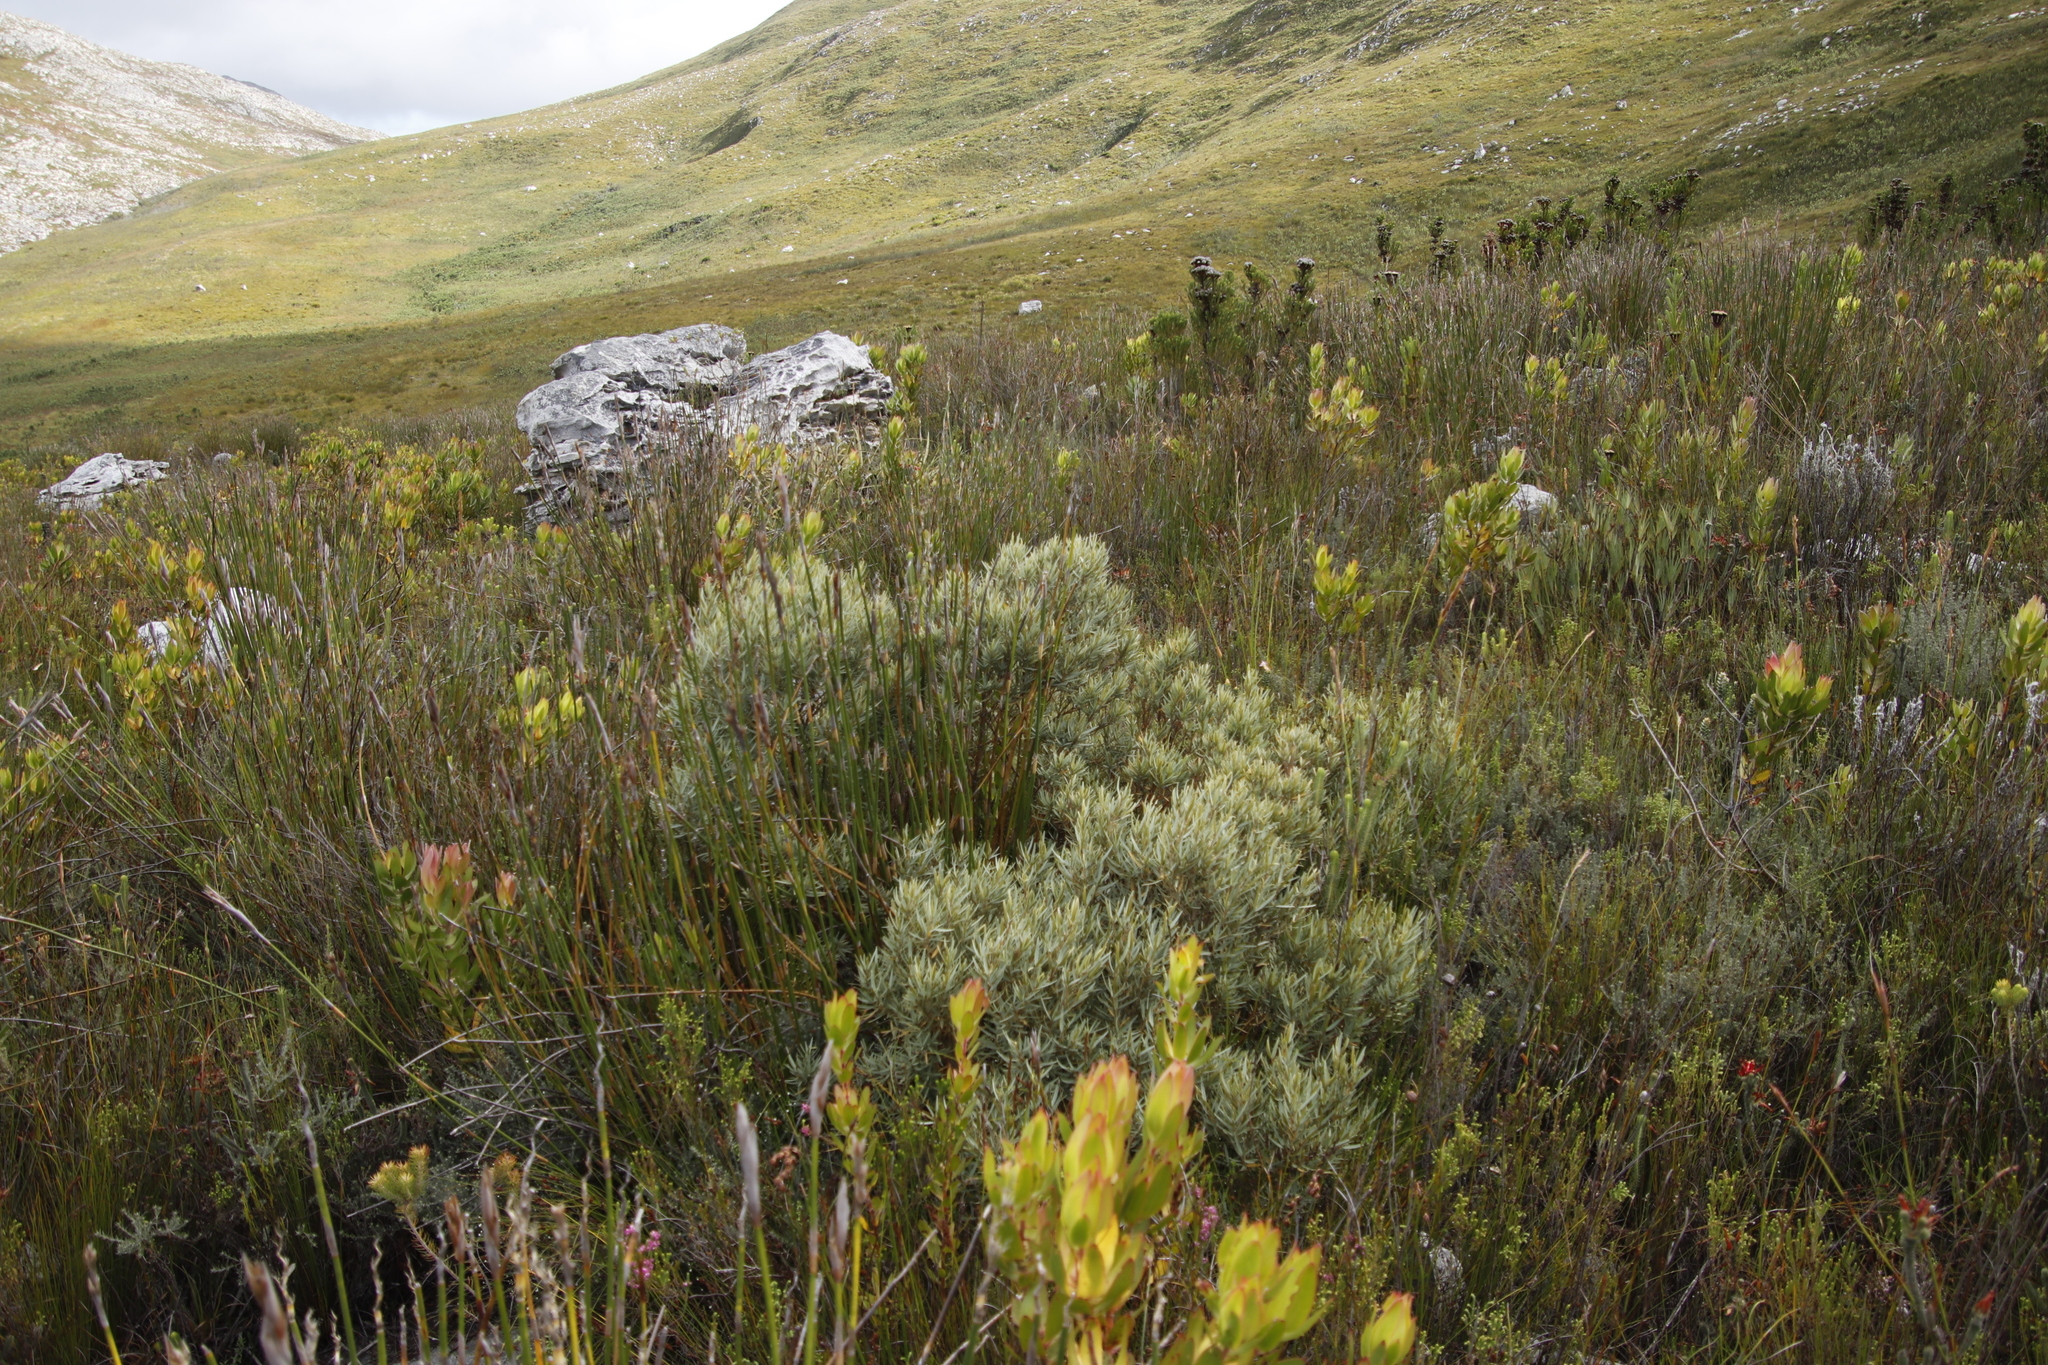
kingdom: Plantae
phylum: Tracheophyta
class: Magnoliopsida
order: Cornales
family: Grubbiaceae
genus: Grubbia
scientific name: Grubbia tomentosa
